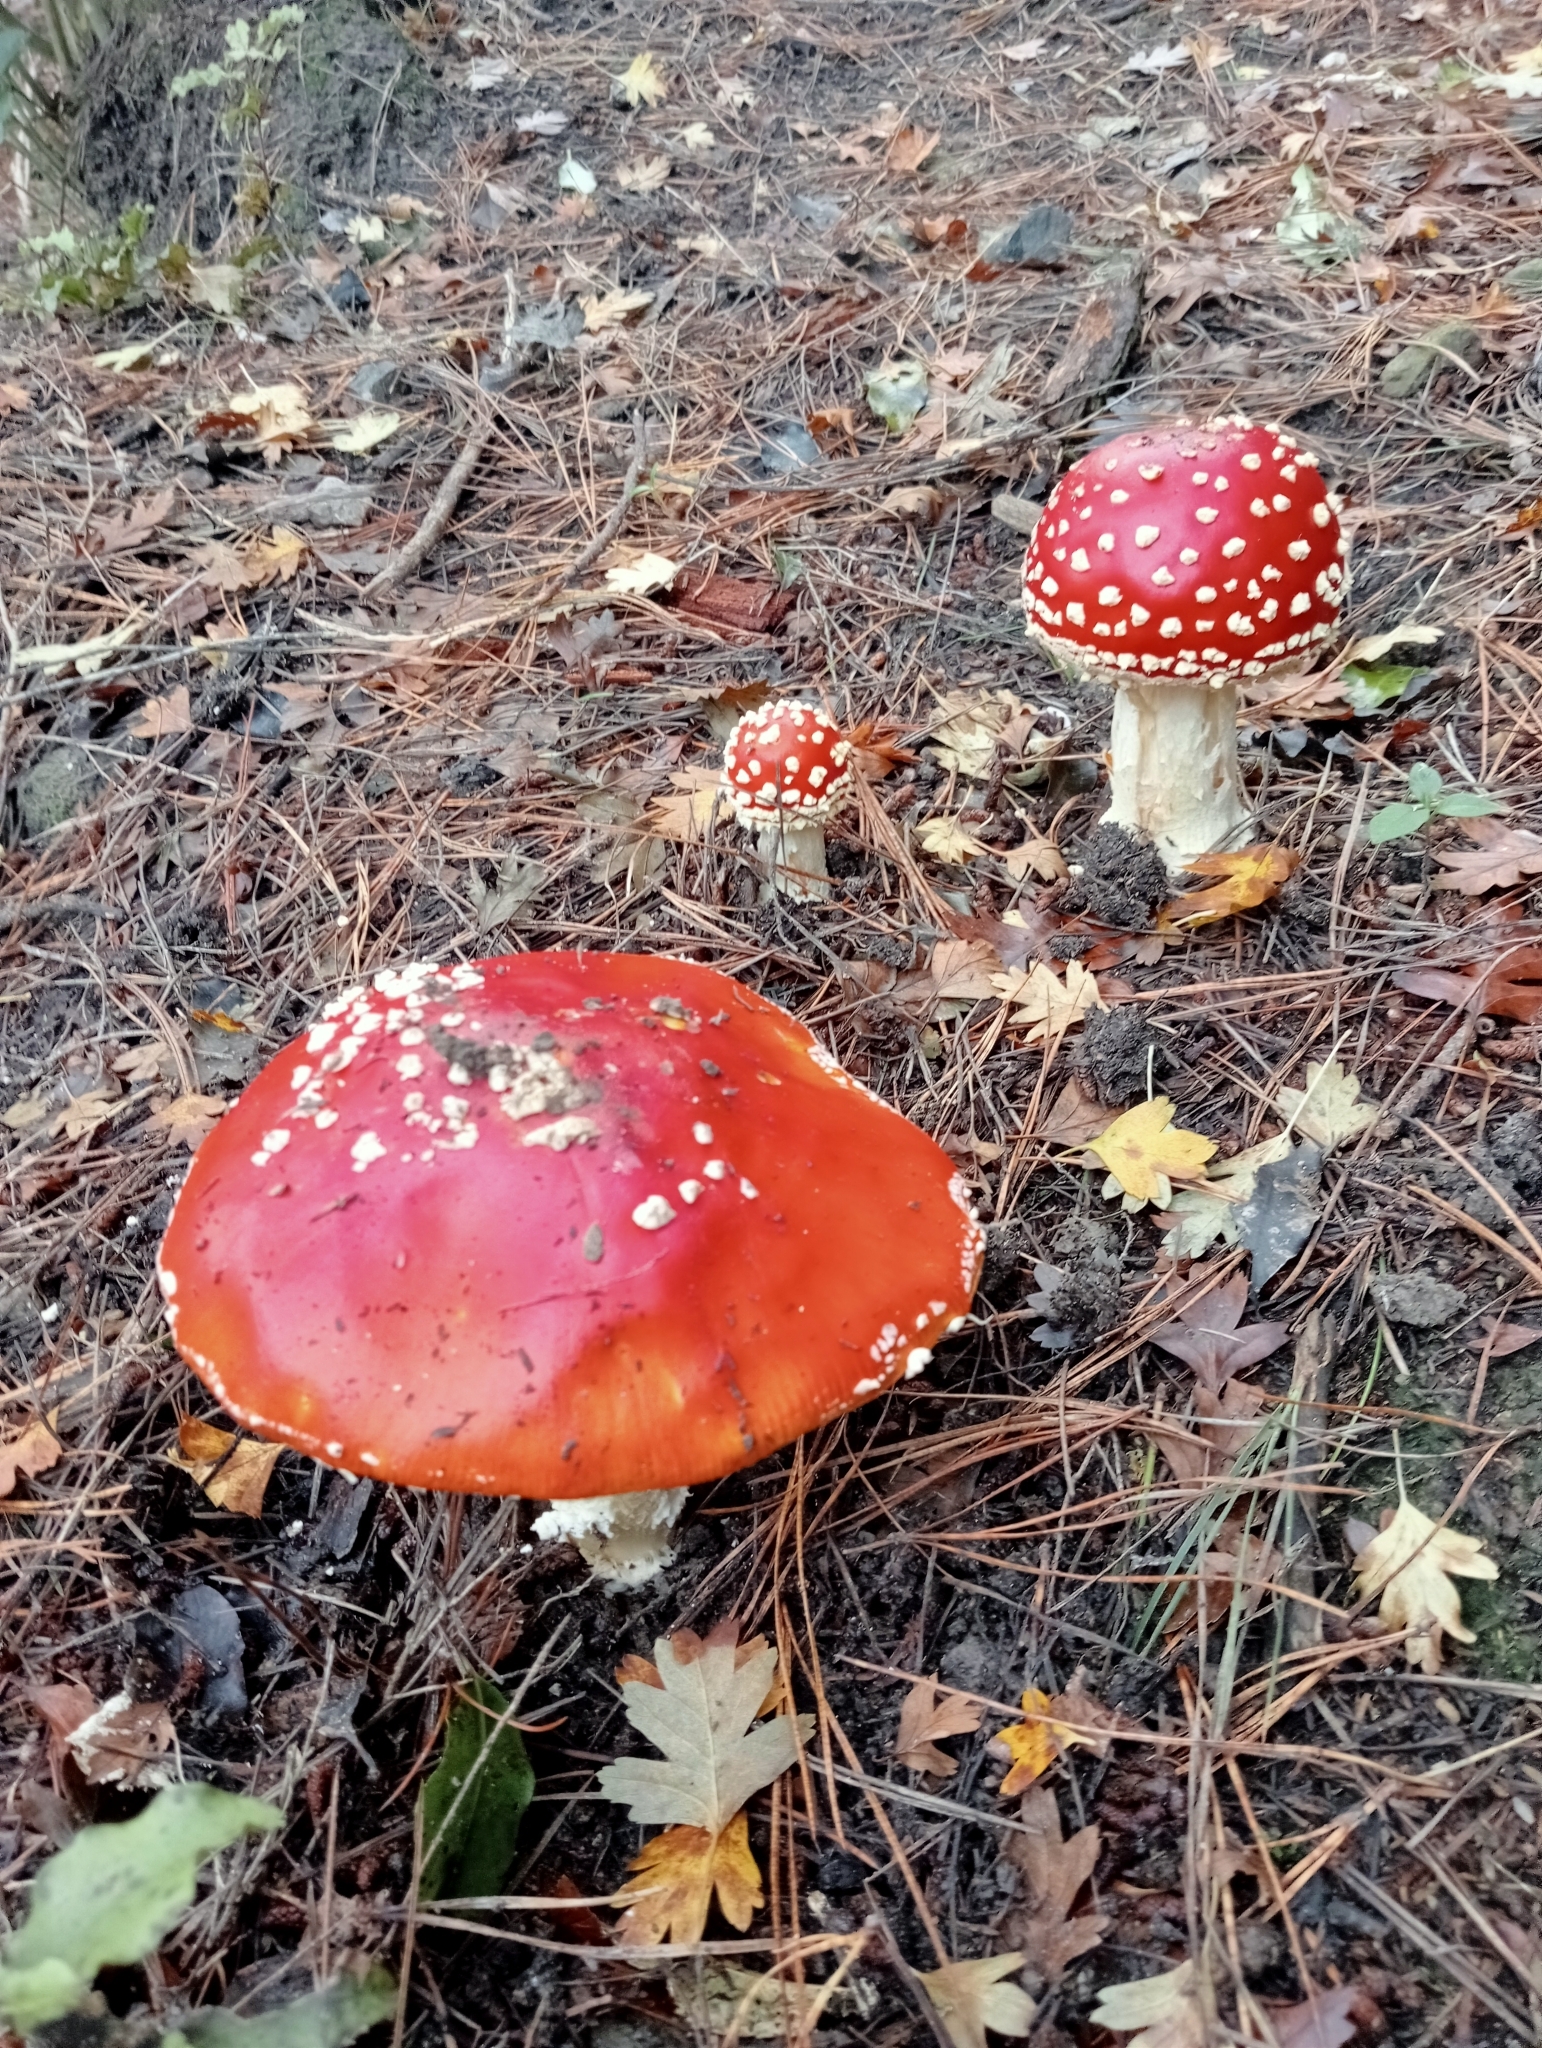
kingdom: Fungi
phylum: Basidiomycota
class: Agaricomycetes
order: Agaricales
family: Amanitaceae
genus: Amanita
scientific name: Amanita muscaria
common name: Fly agaric
